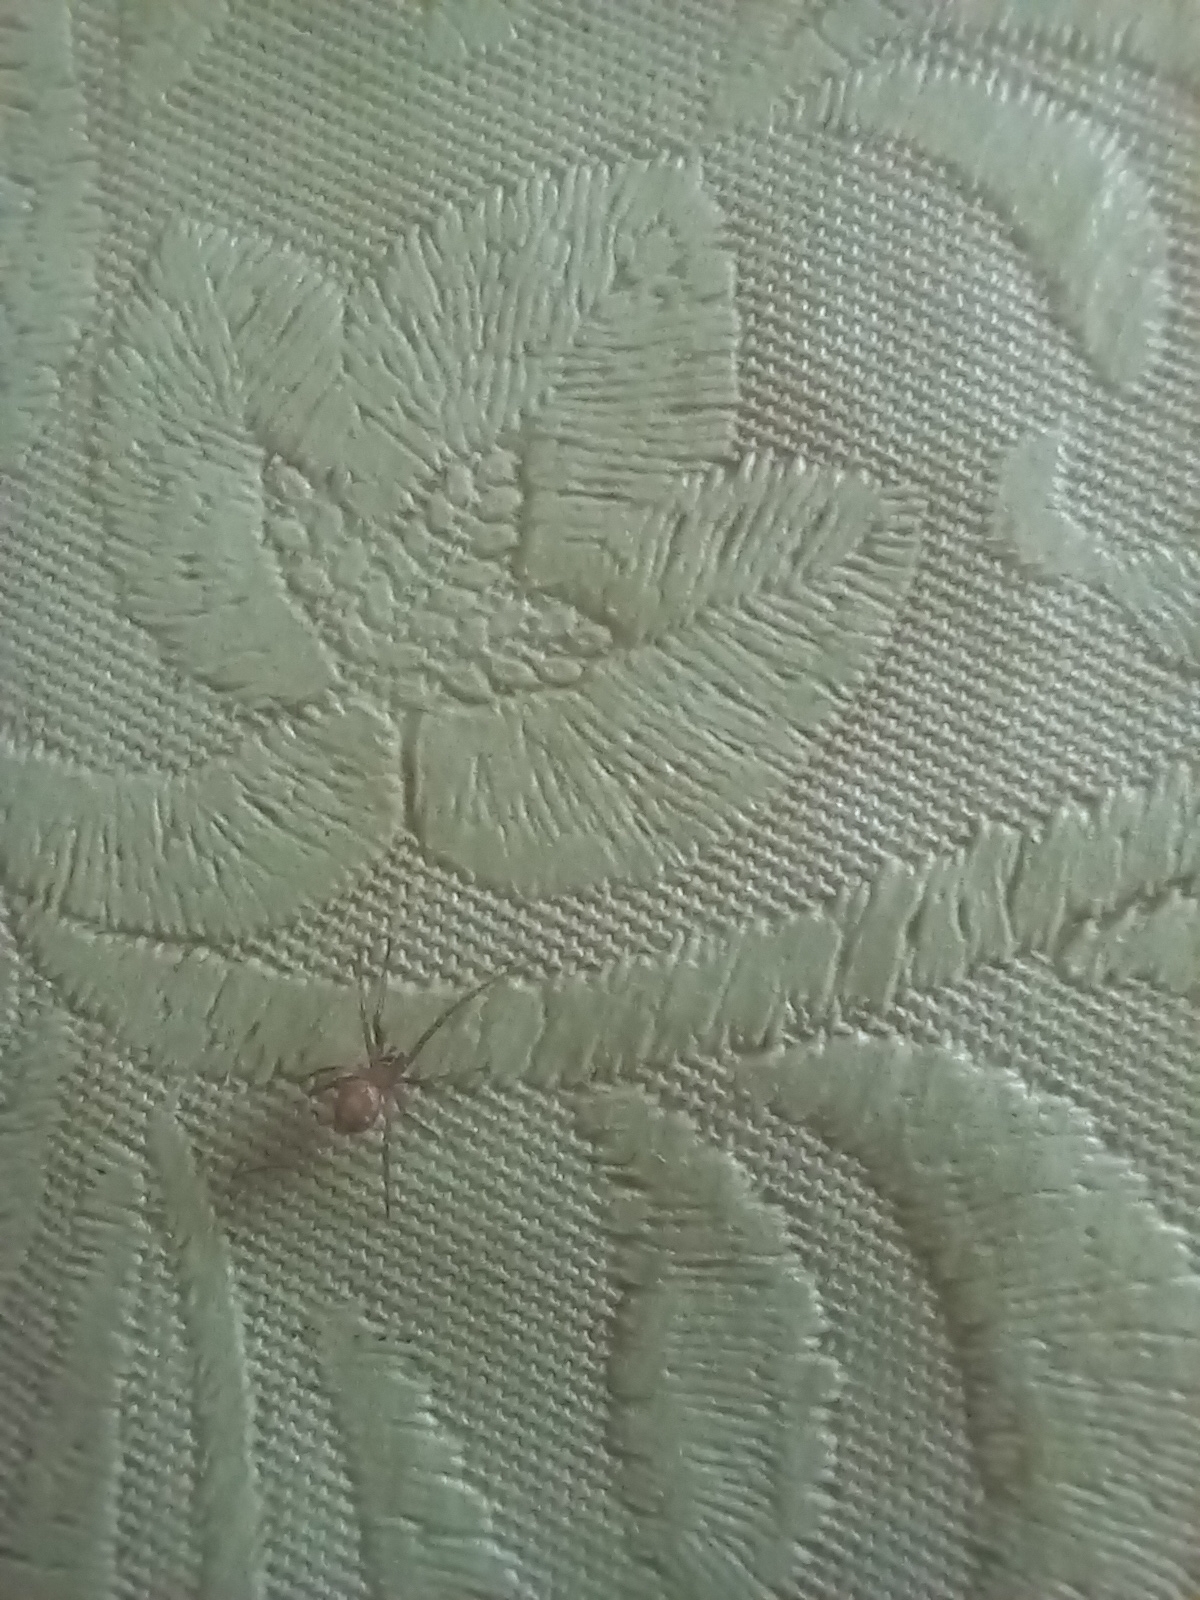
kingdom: Animalia
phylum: Arthropoda
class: Arachnida
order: Araneae
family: Theridiidae
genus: Steatoda
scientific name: Steatoda grossa
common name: False black widow
